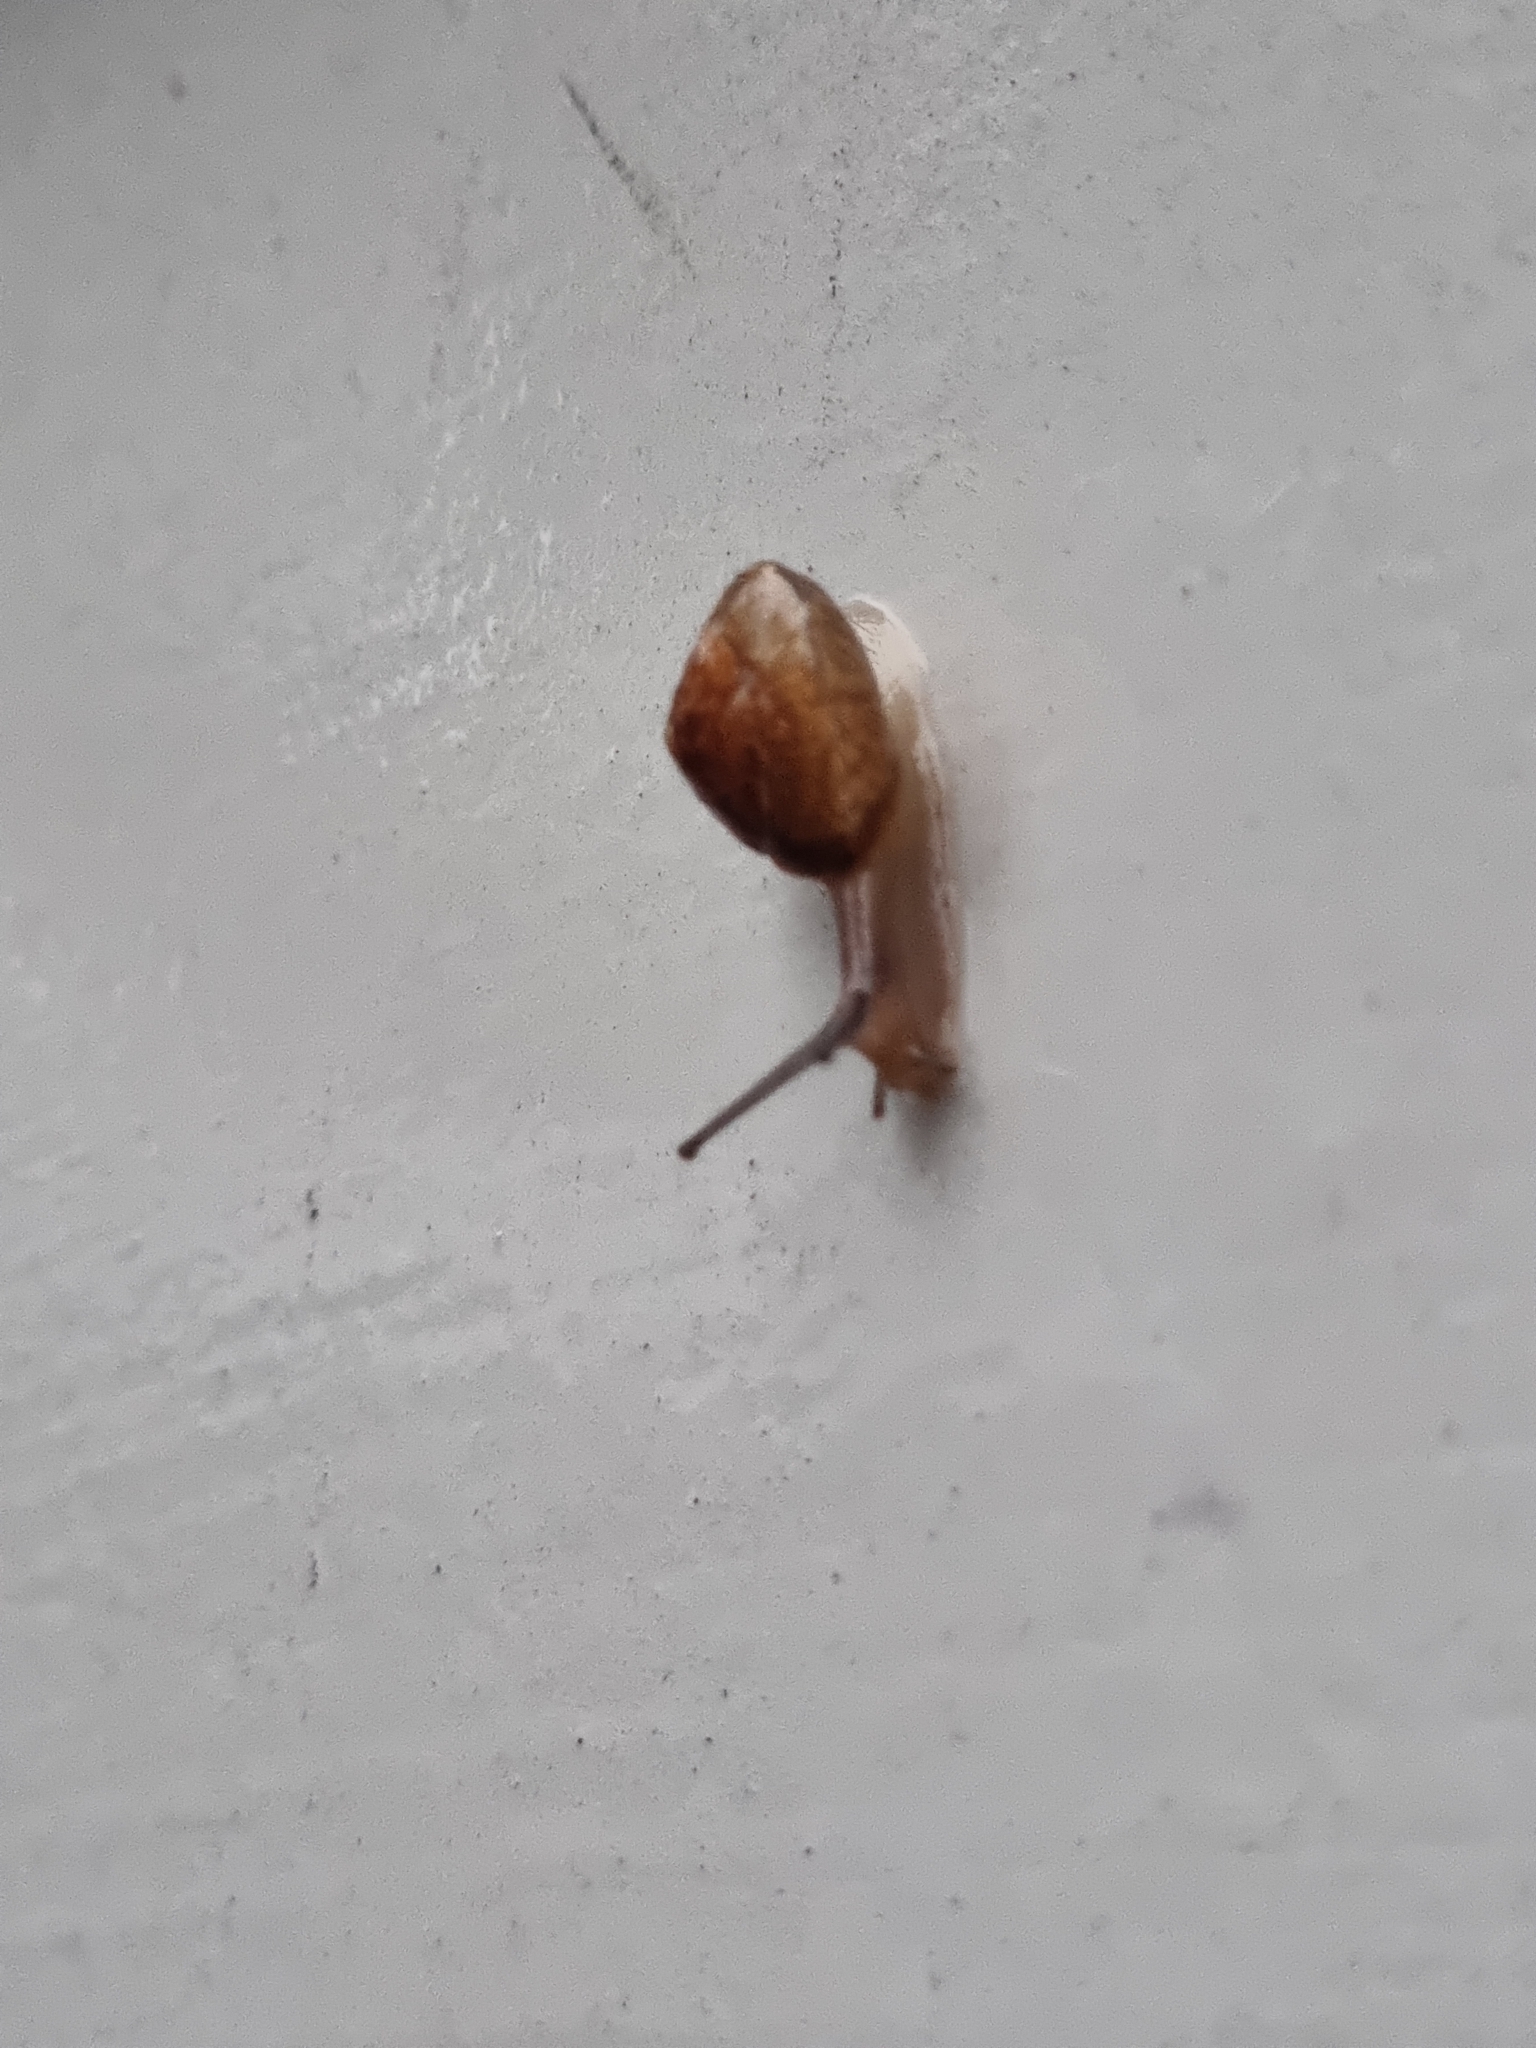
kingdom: Animalia
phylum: Mollusca
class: Gastropoda
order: Stylommatophora
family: Hygromiidae
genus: Hygromia
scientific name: Hygromia cinctella
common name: Girdled snail
